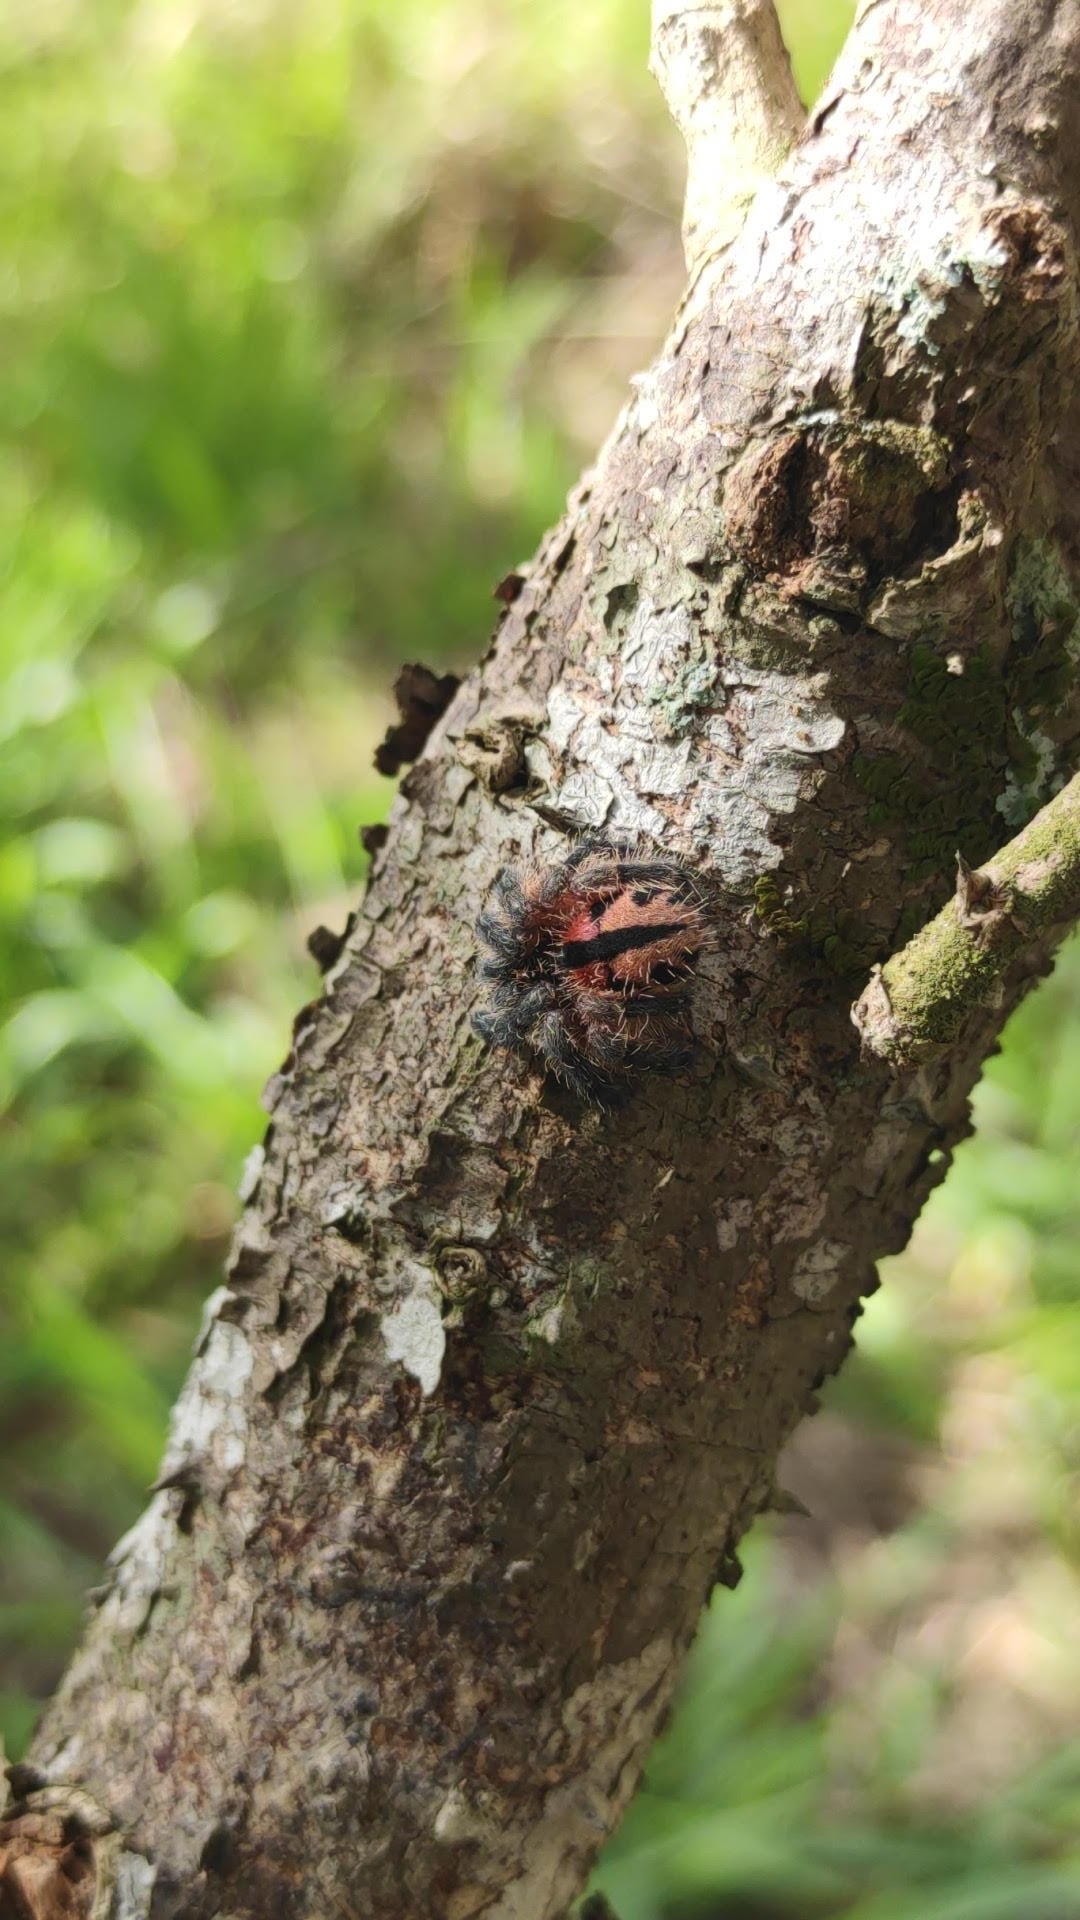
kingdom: Animalia
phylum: Arthropoda
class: Arachnida
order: Araneae
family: Theraphosidae
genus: Typhochlaena
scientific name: Typhochlaena curumim
